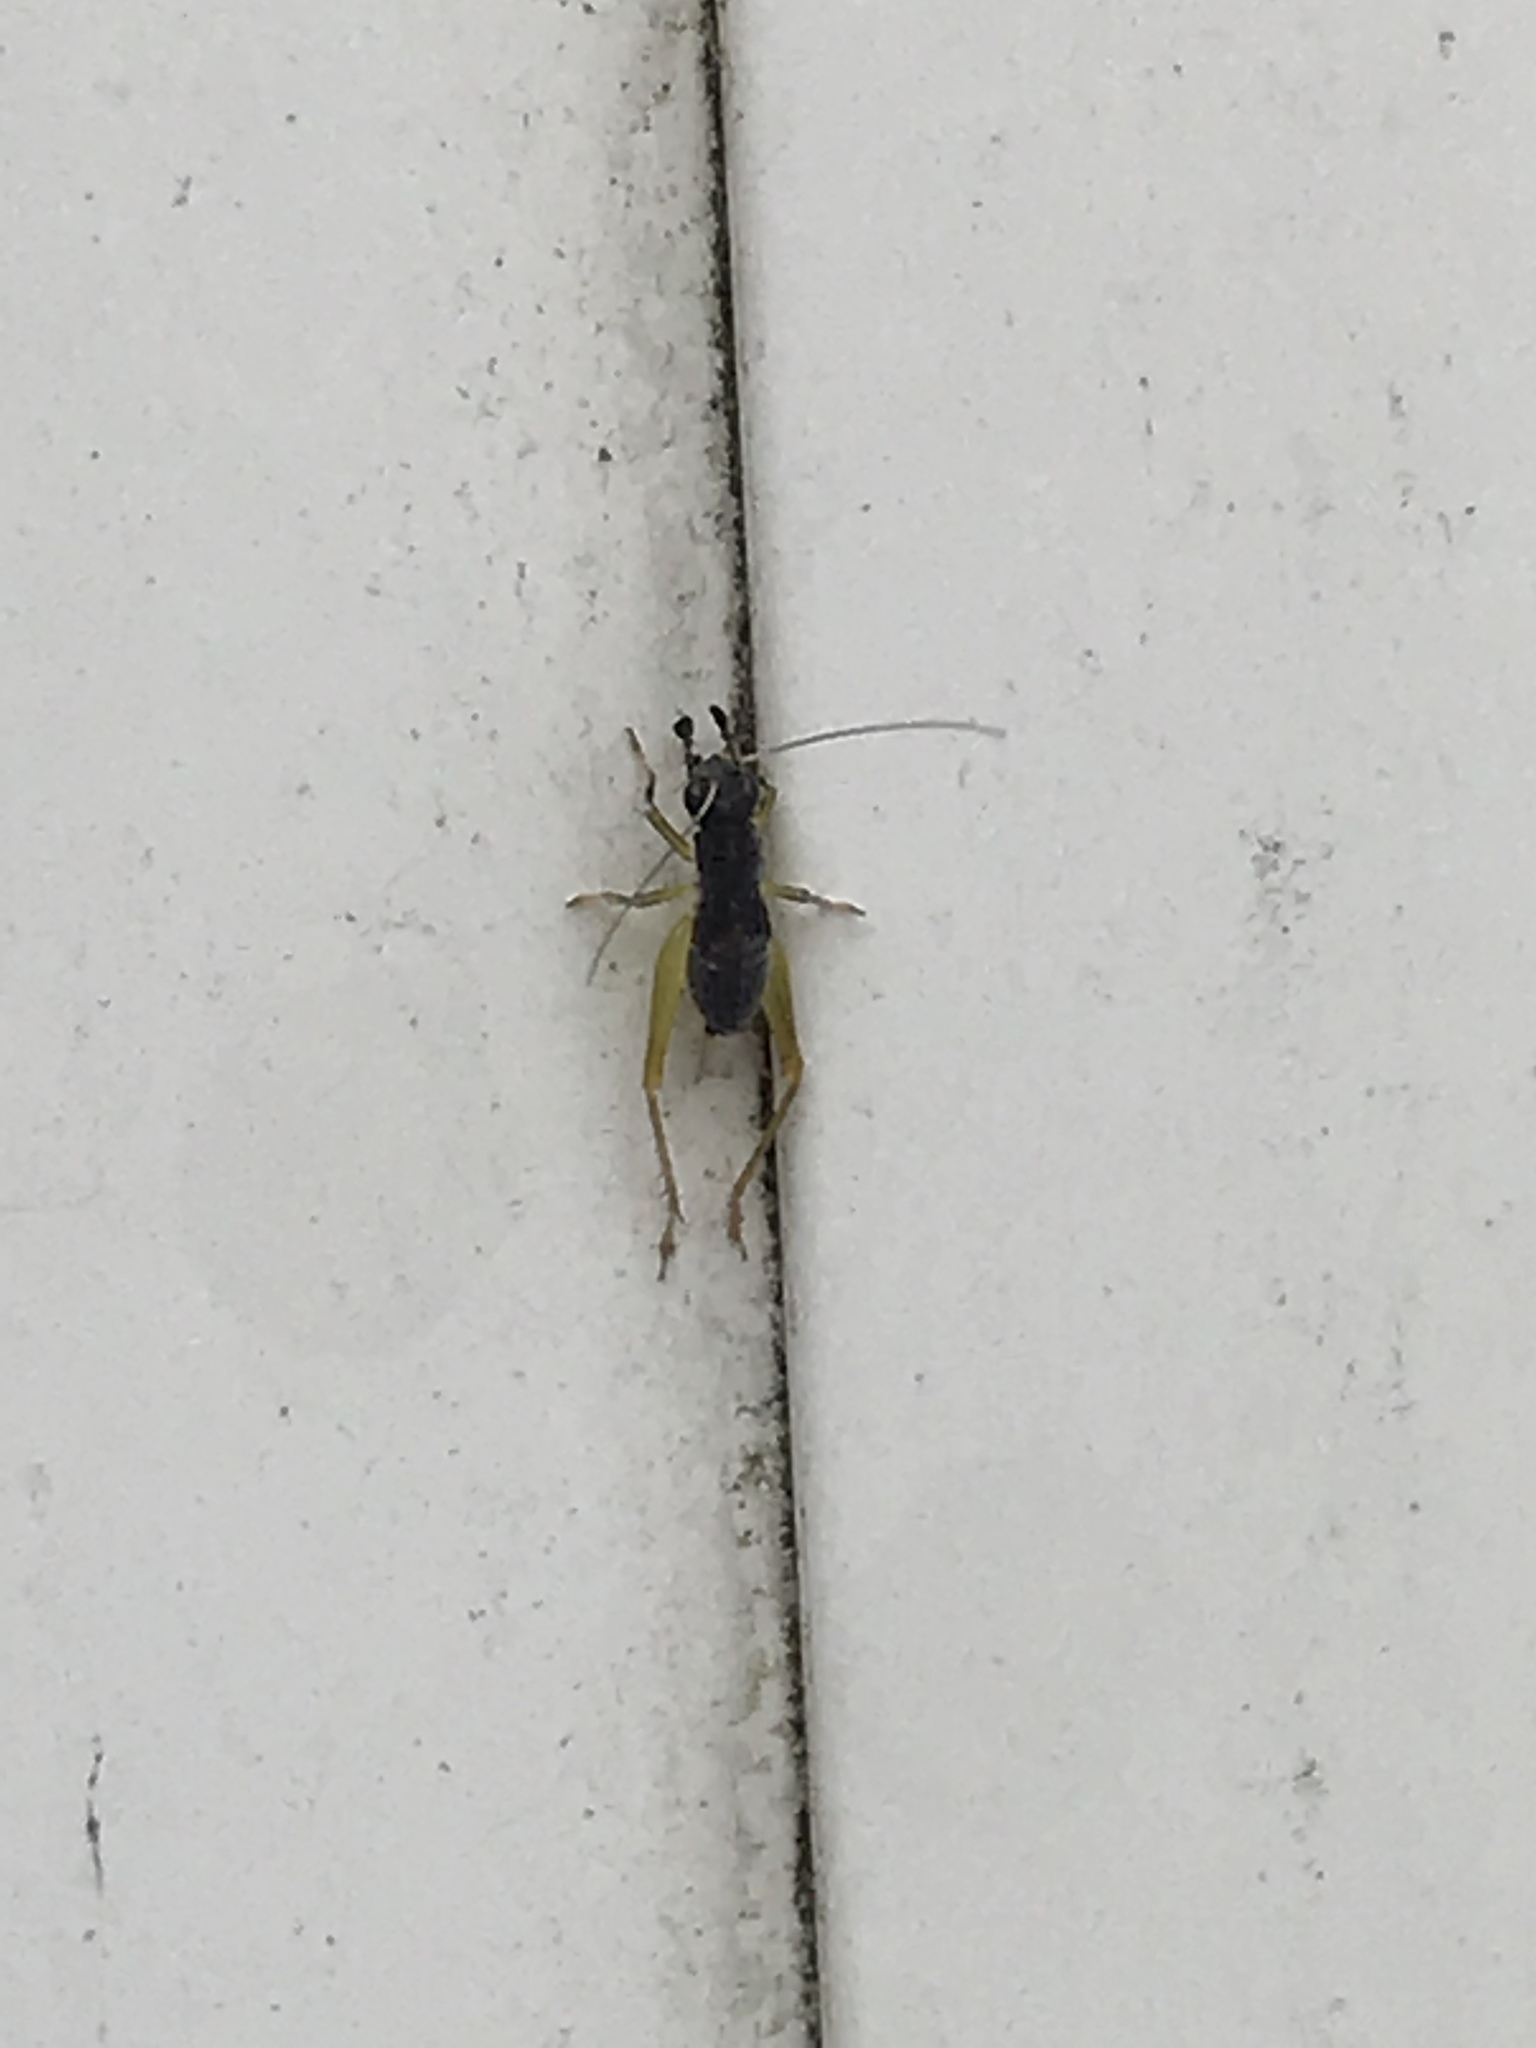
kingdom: Animalia
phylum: Arthropoda
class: Insecta
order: Orthoptera
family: Trigonidiidae
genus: Phyllopalpus
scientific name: Phyllopalpus pulchellus
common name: Handsome trig
